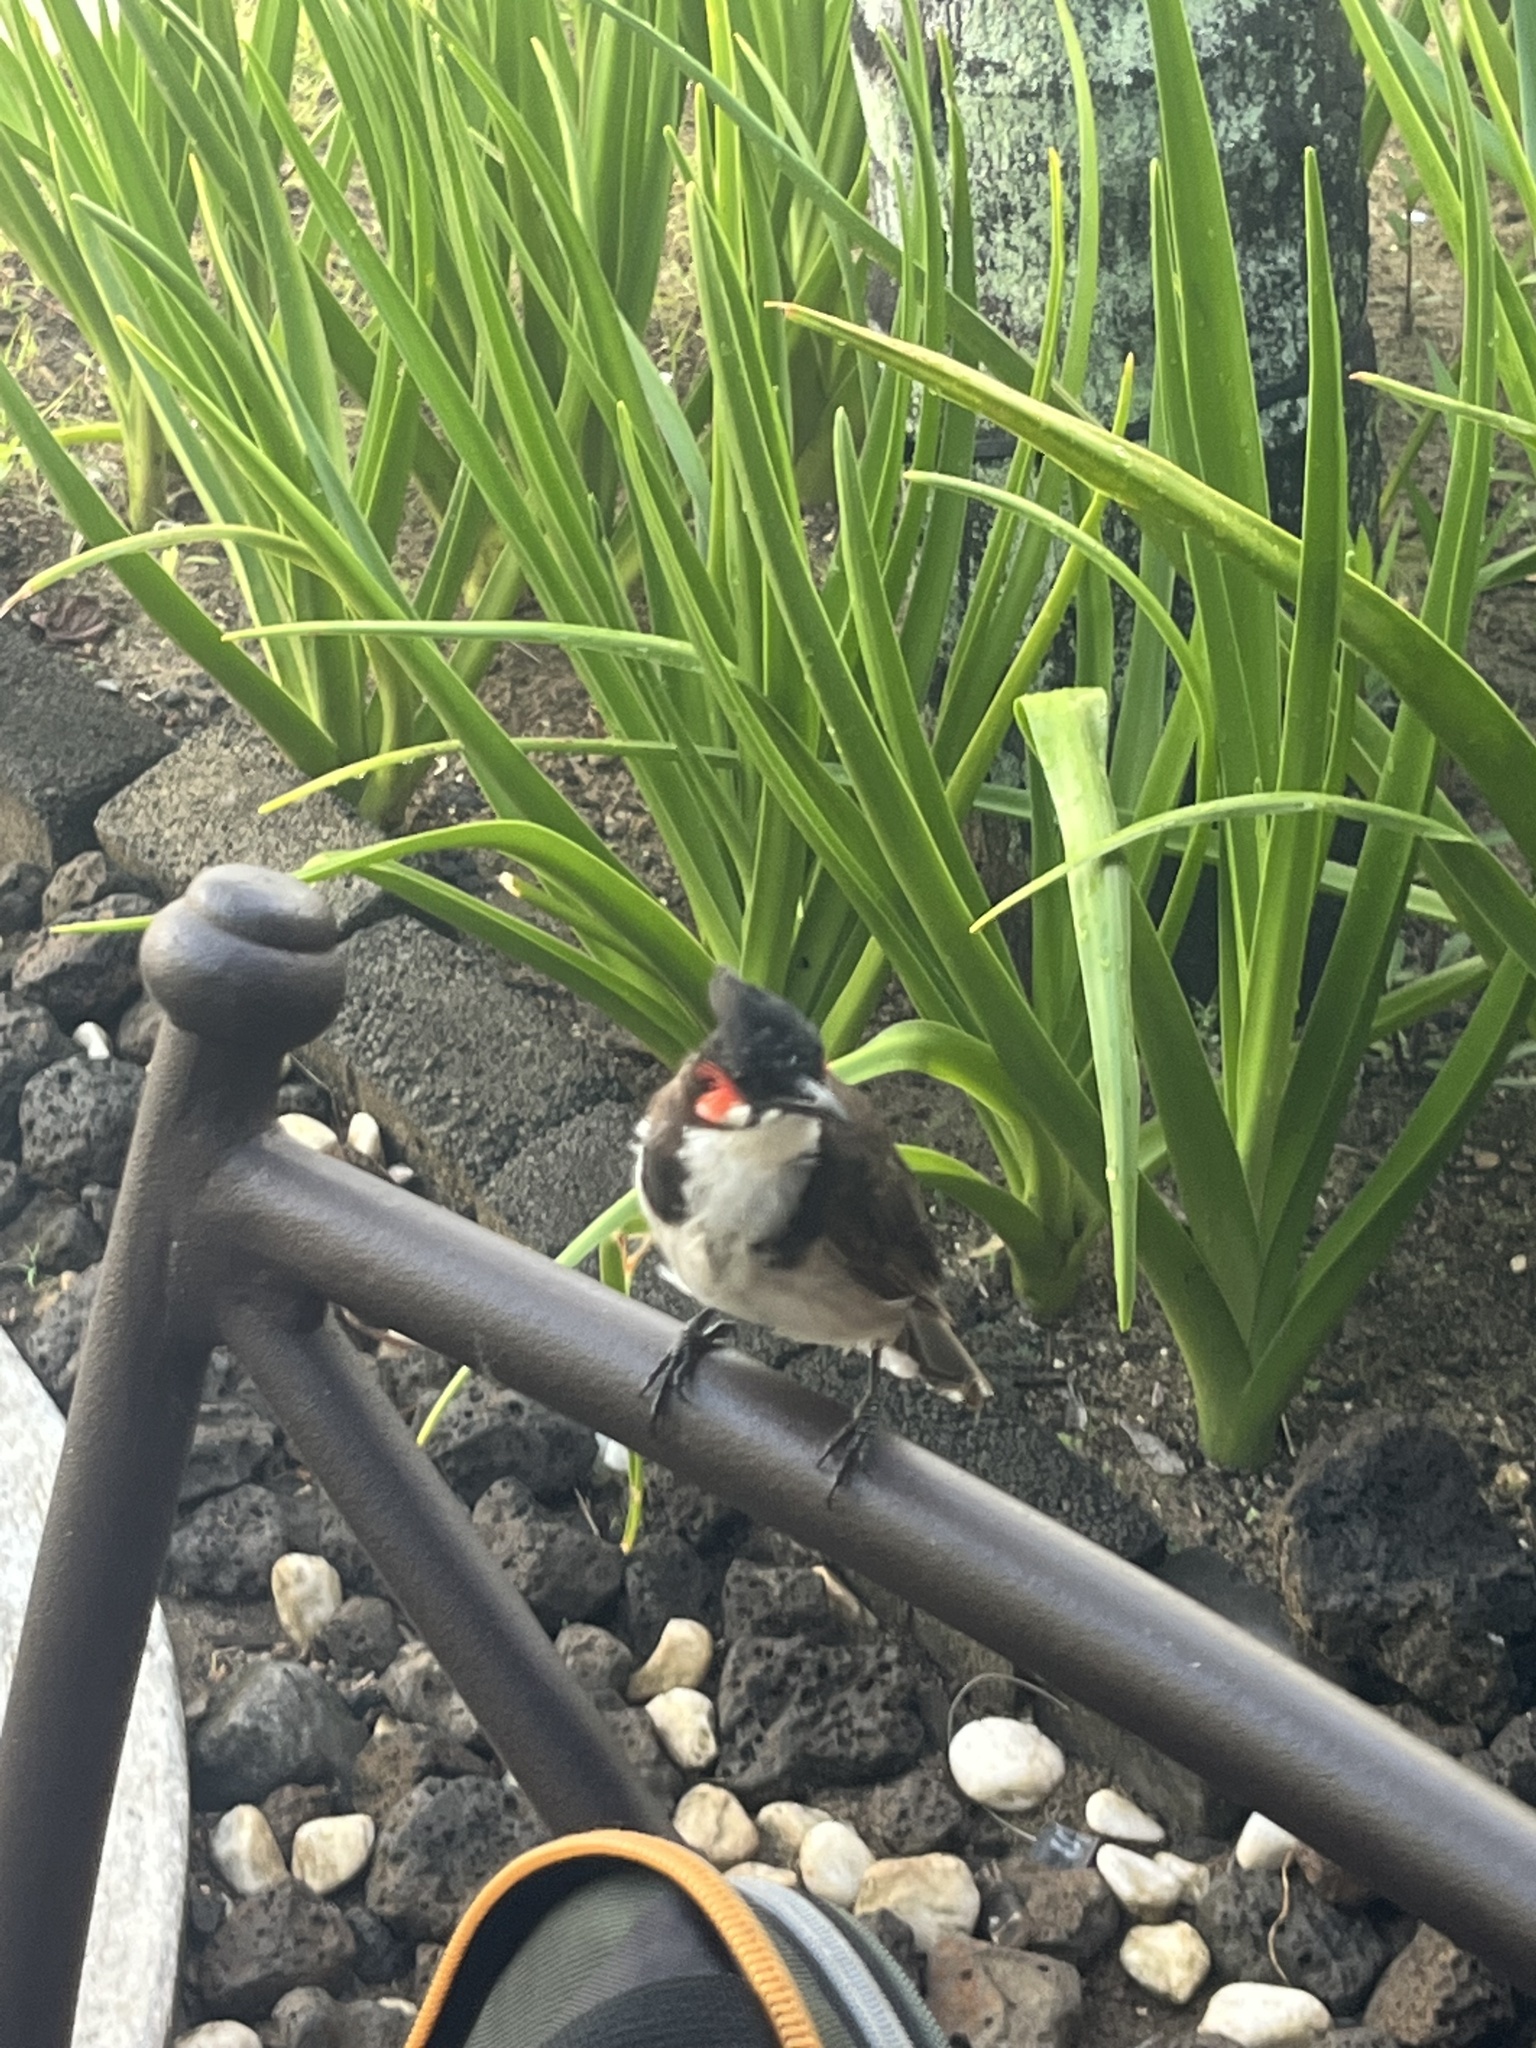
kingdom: Animalia
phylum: Chordata
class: Aves
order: Passeriformes
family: Pycnonotidae
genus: Pycnonotus
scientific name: Pycnonotus jocosus
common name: Red-whiskered bulbul
